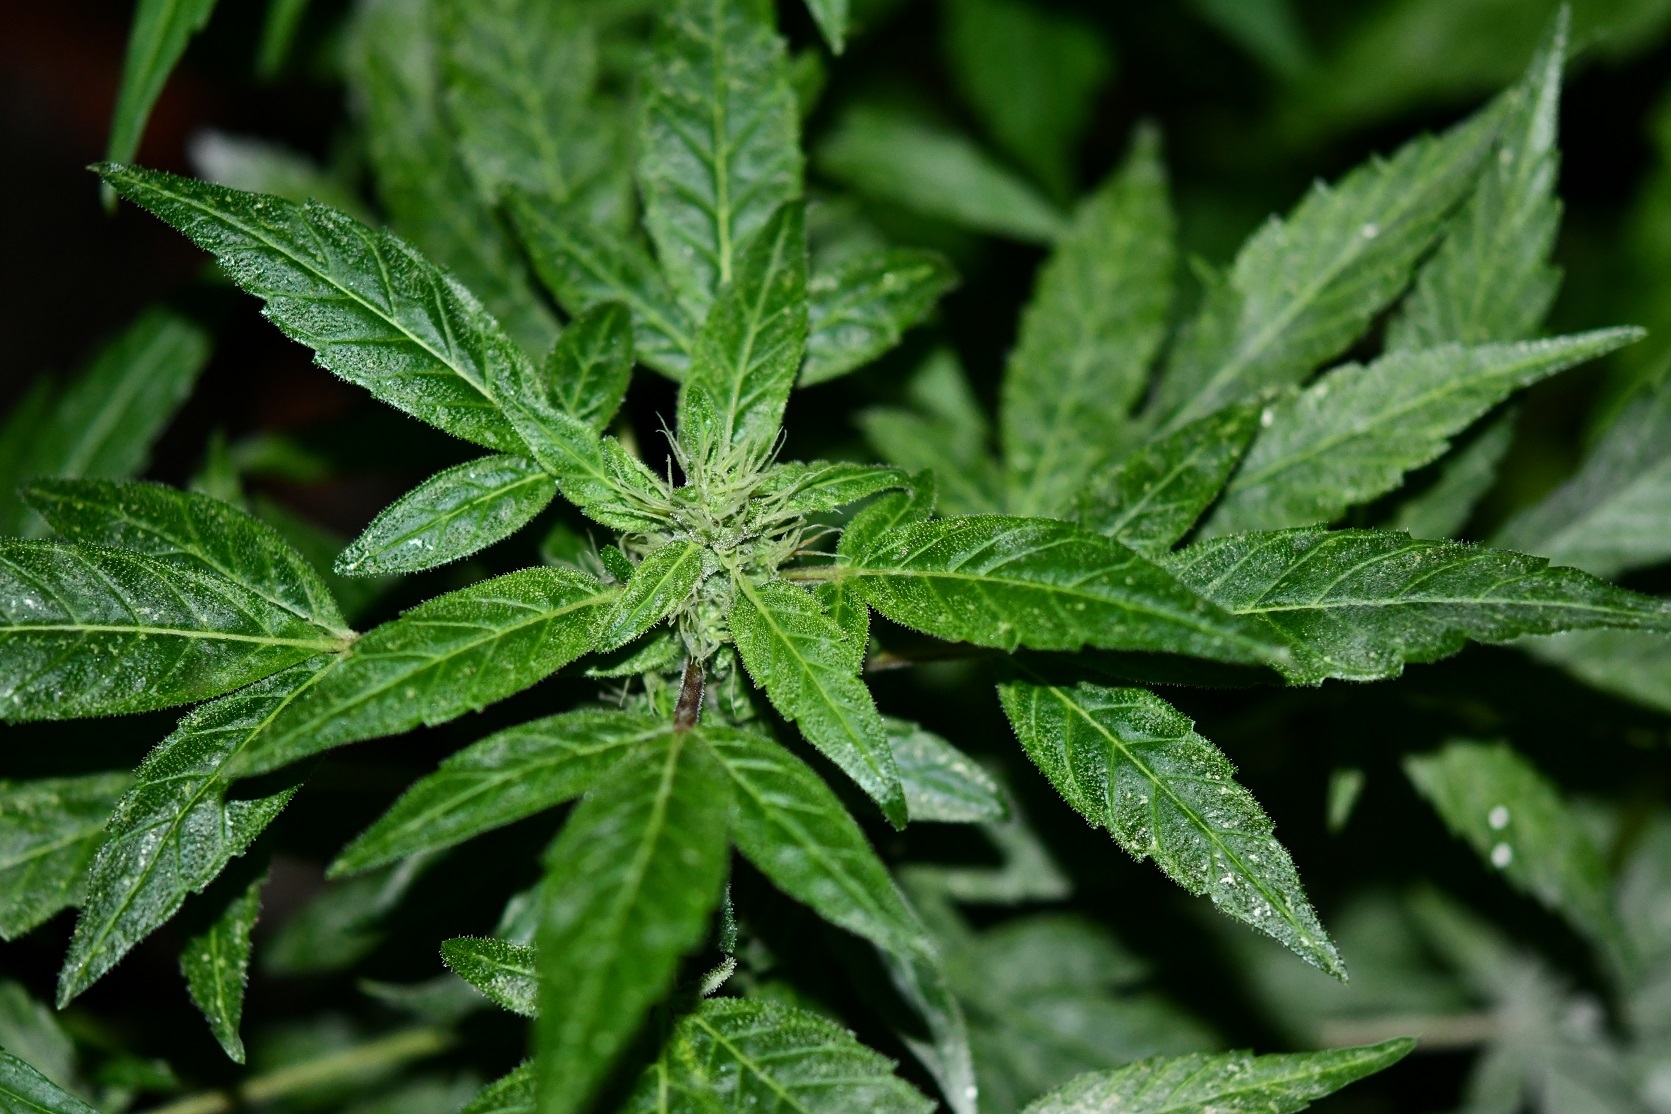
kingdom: Plantae
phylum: Tracheophyta
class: Magnoliopsida
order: Rosales
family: Cannabaceae
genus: Cannabis
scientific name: Cannabis sativa
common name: Hemp
